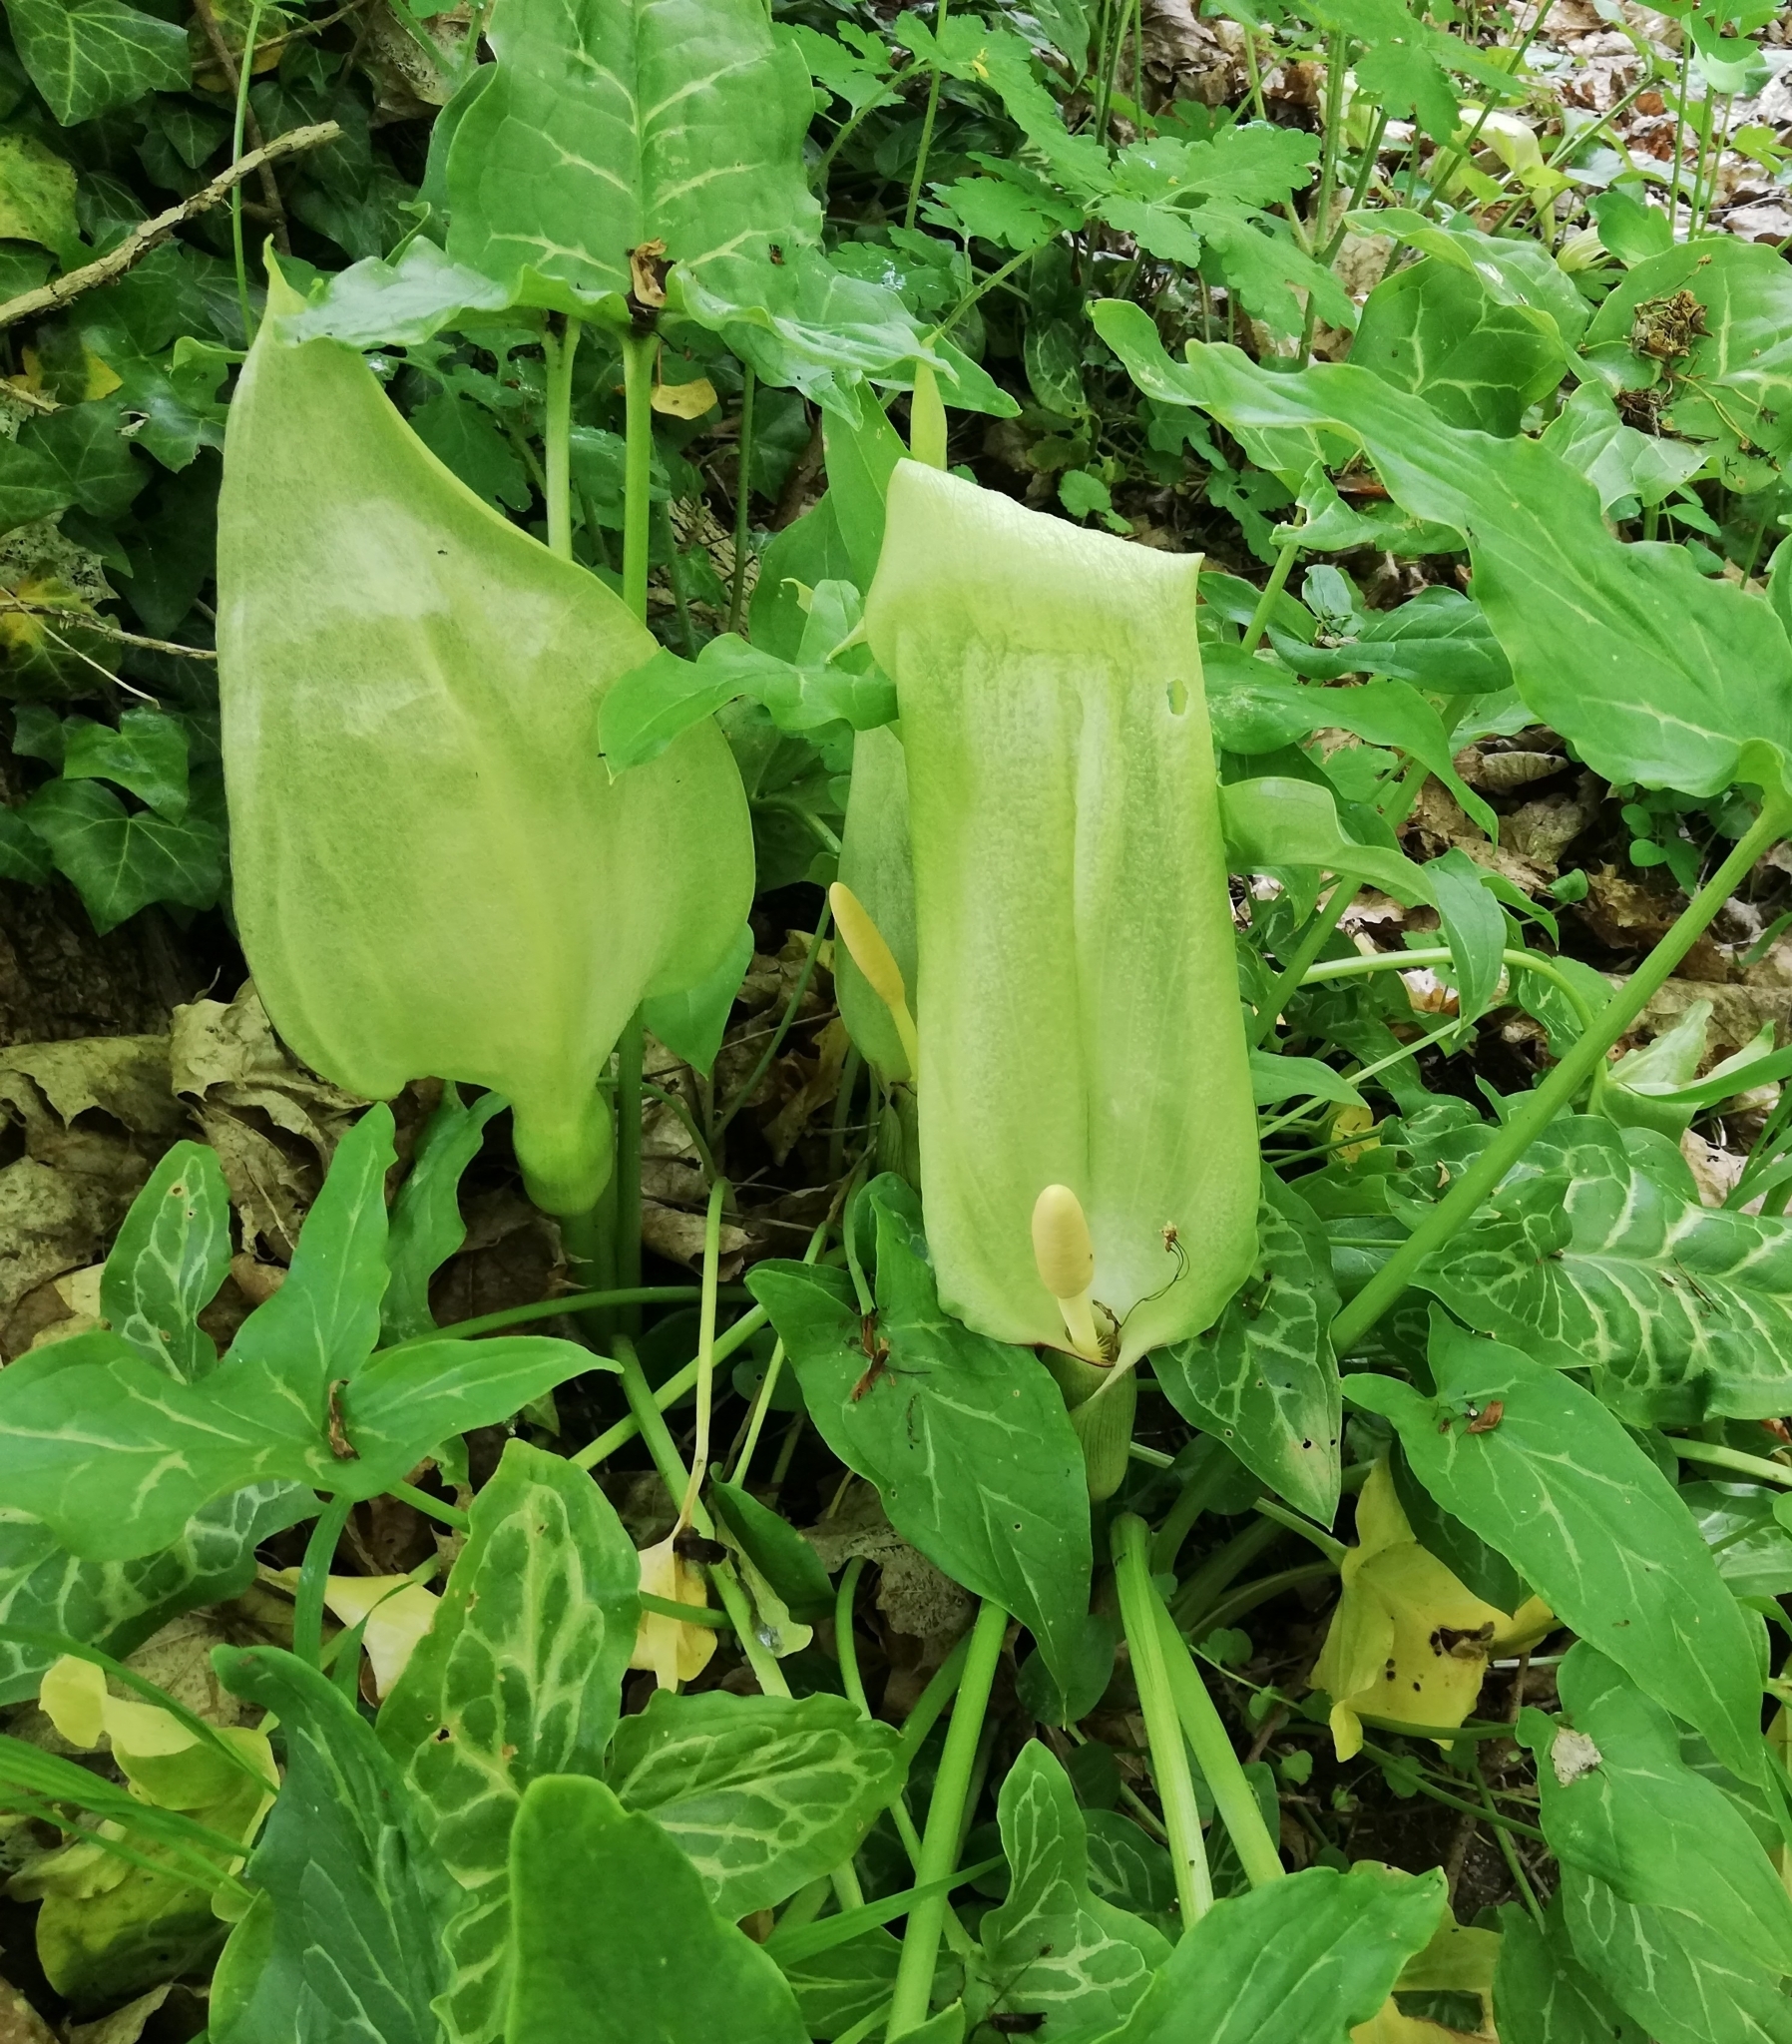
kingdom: Plantae
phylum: Tracheophyta
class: Liliopsida
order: Alismatales
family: Araceae
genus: Arum
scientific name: Arum italicum
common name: Italian lords-and-ladies
